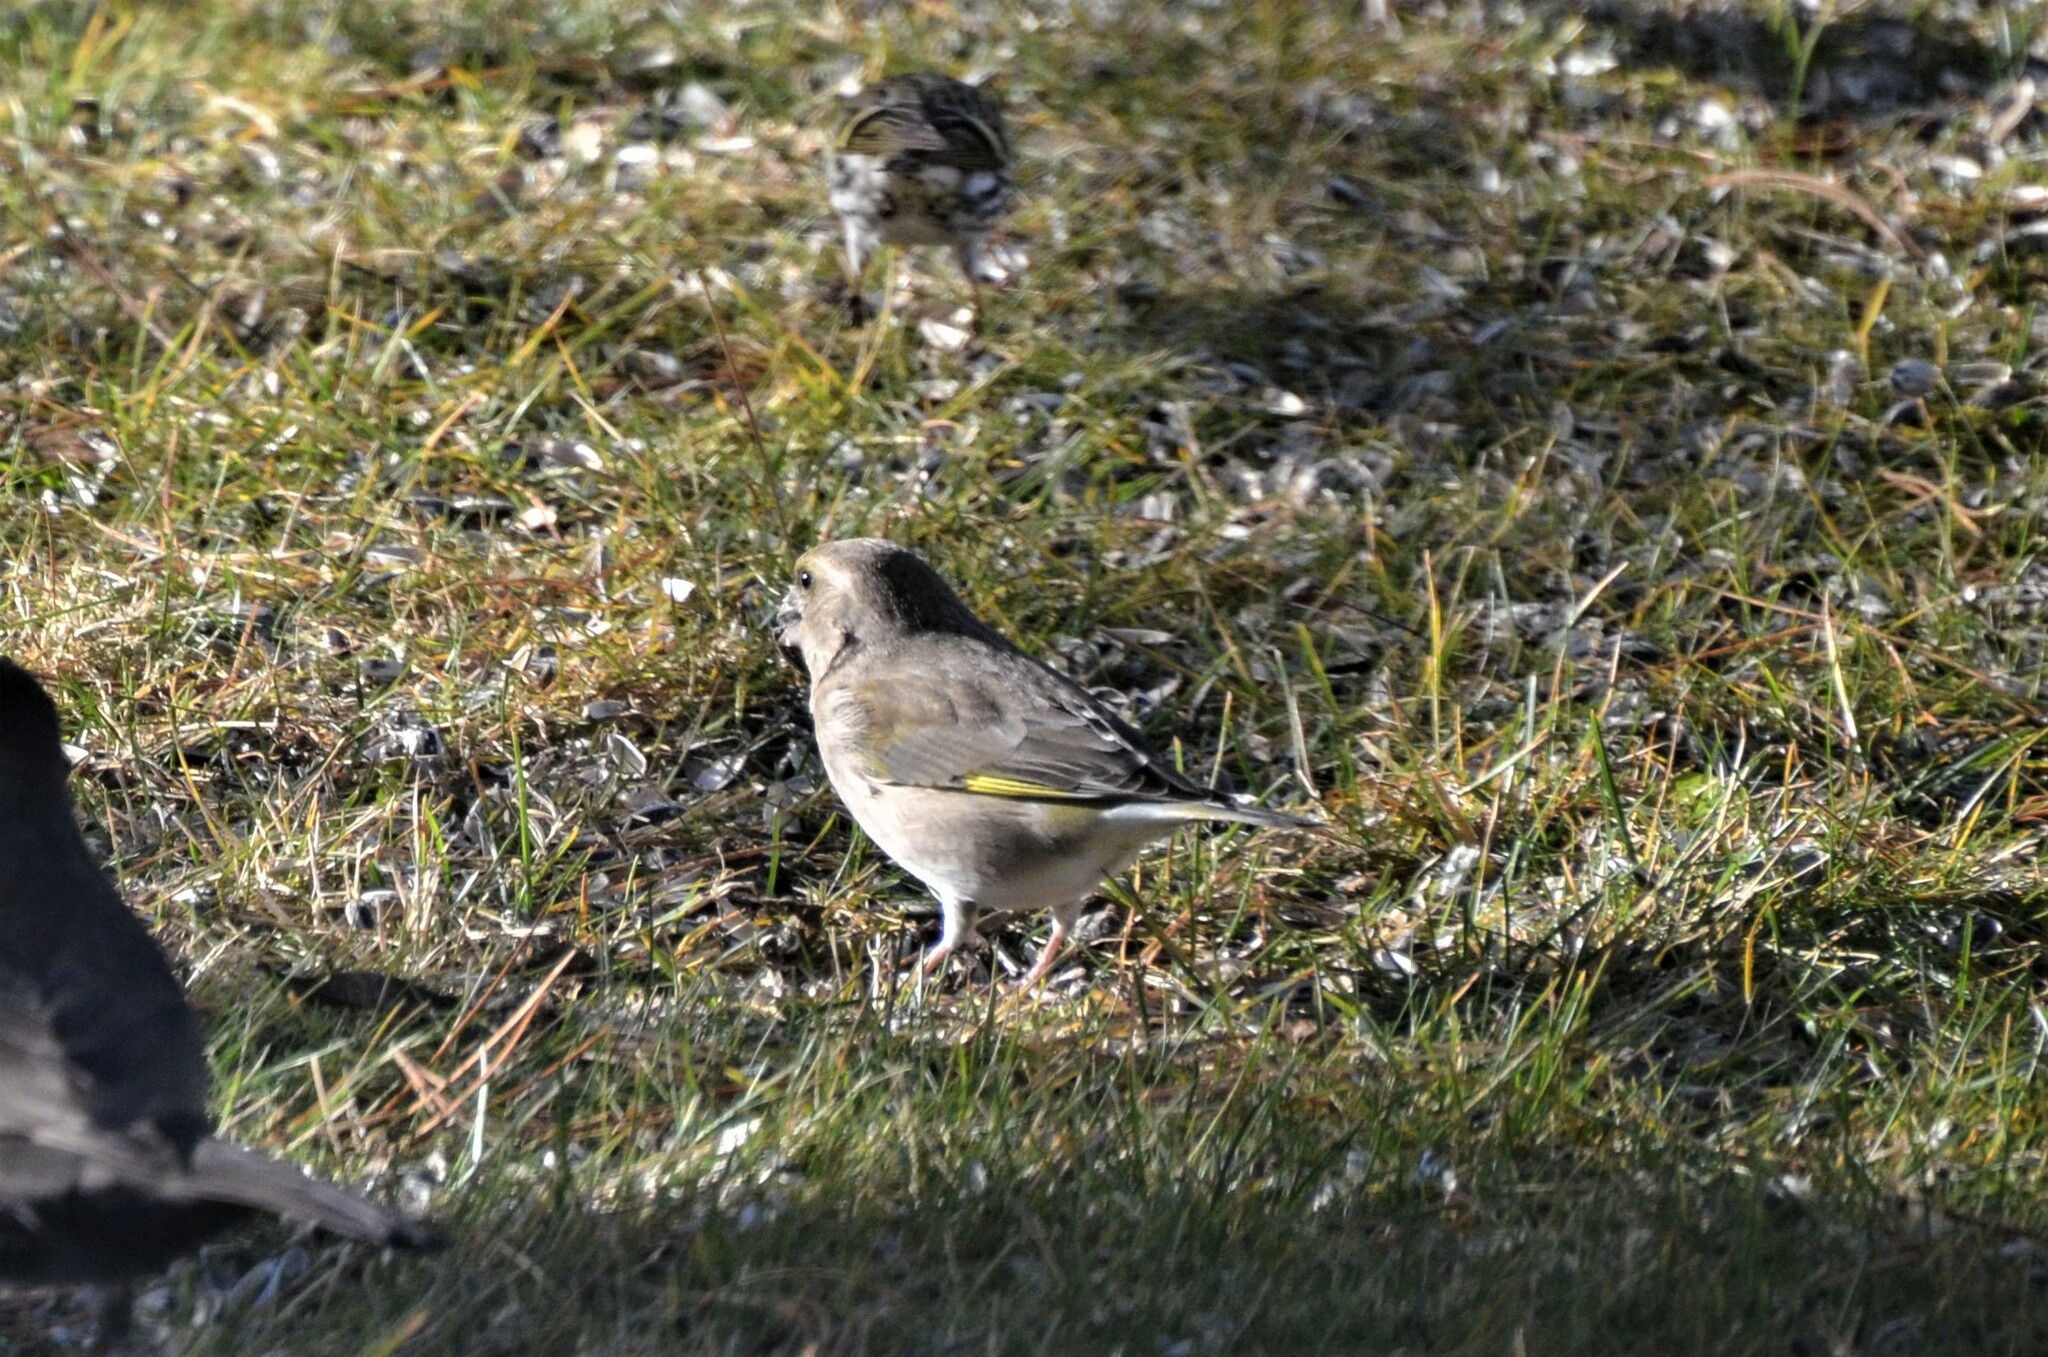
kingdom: Plantae
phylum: Tracheophyta
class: Liliopsida
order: Poales
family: Poaceae
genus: Chloris
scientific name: Chloris chloris
